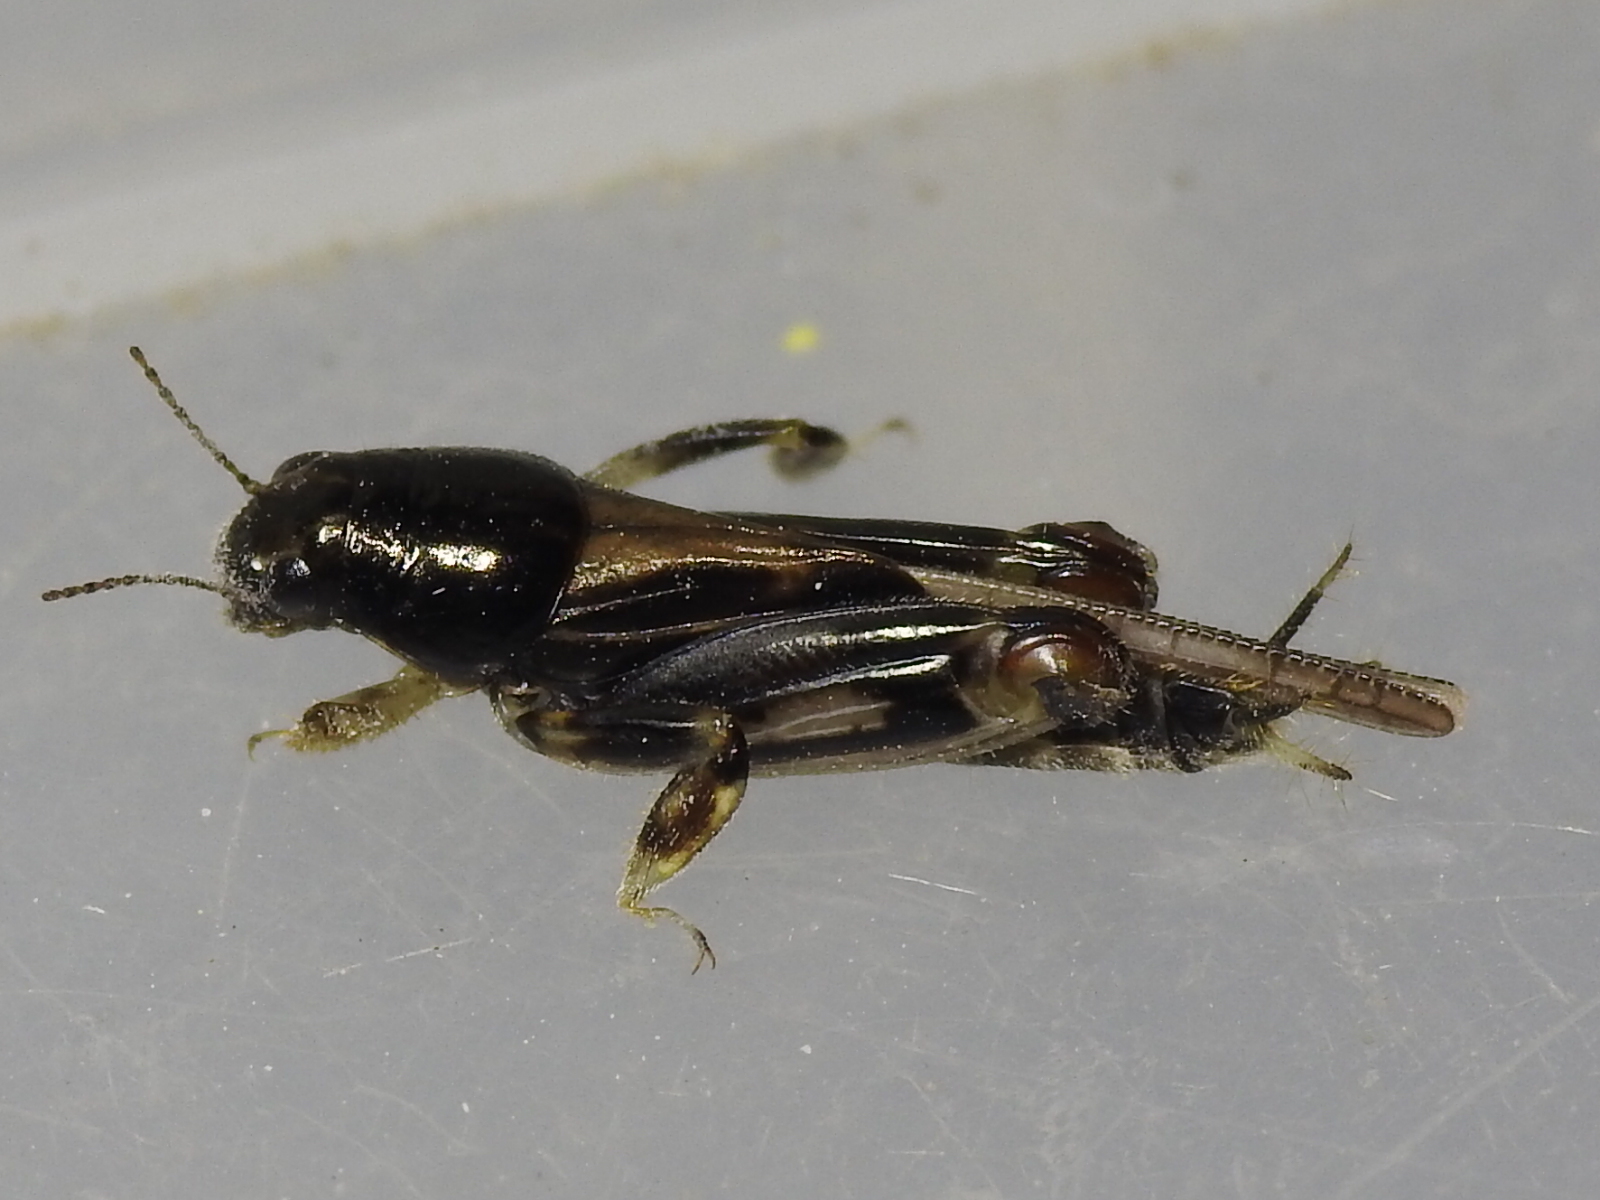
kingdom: Animalia
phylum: Arthropoda
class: Insecta
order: Orthoptera
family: Tridactylidae
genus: Neotridactylus
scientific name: Neotridactylus apicialis
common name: Larger pygmy locust
